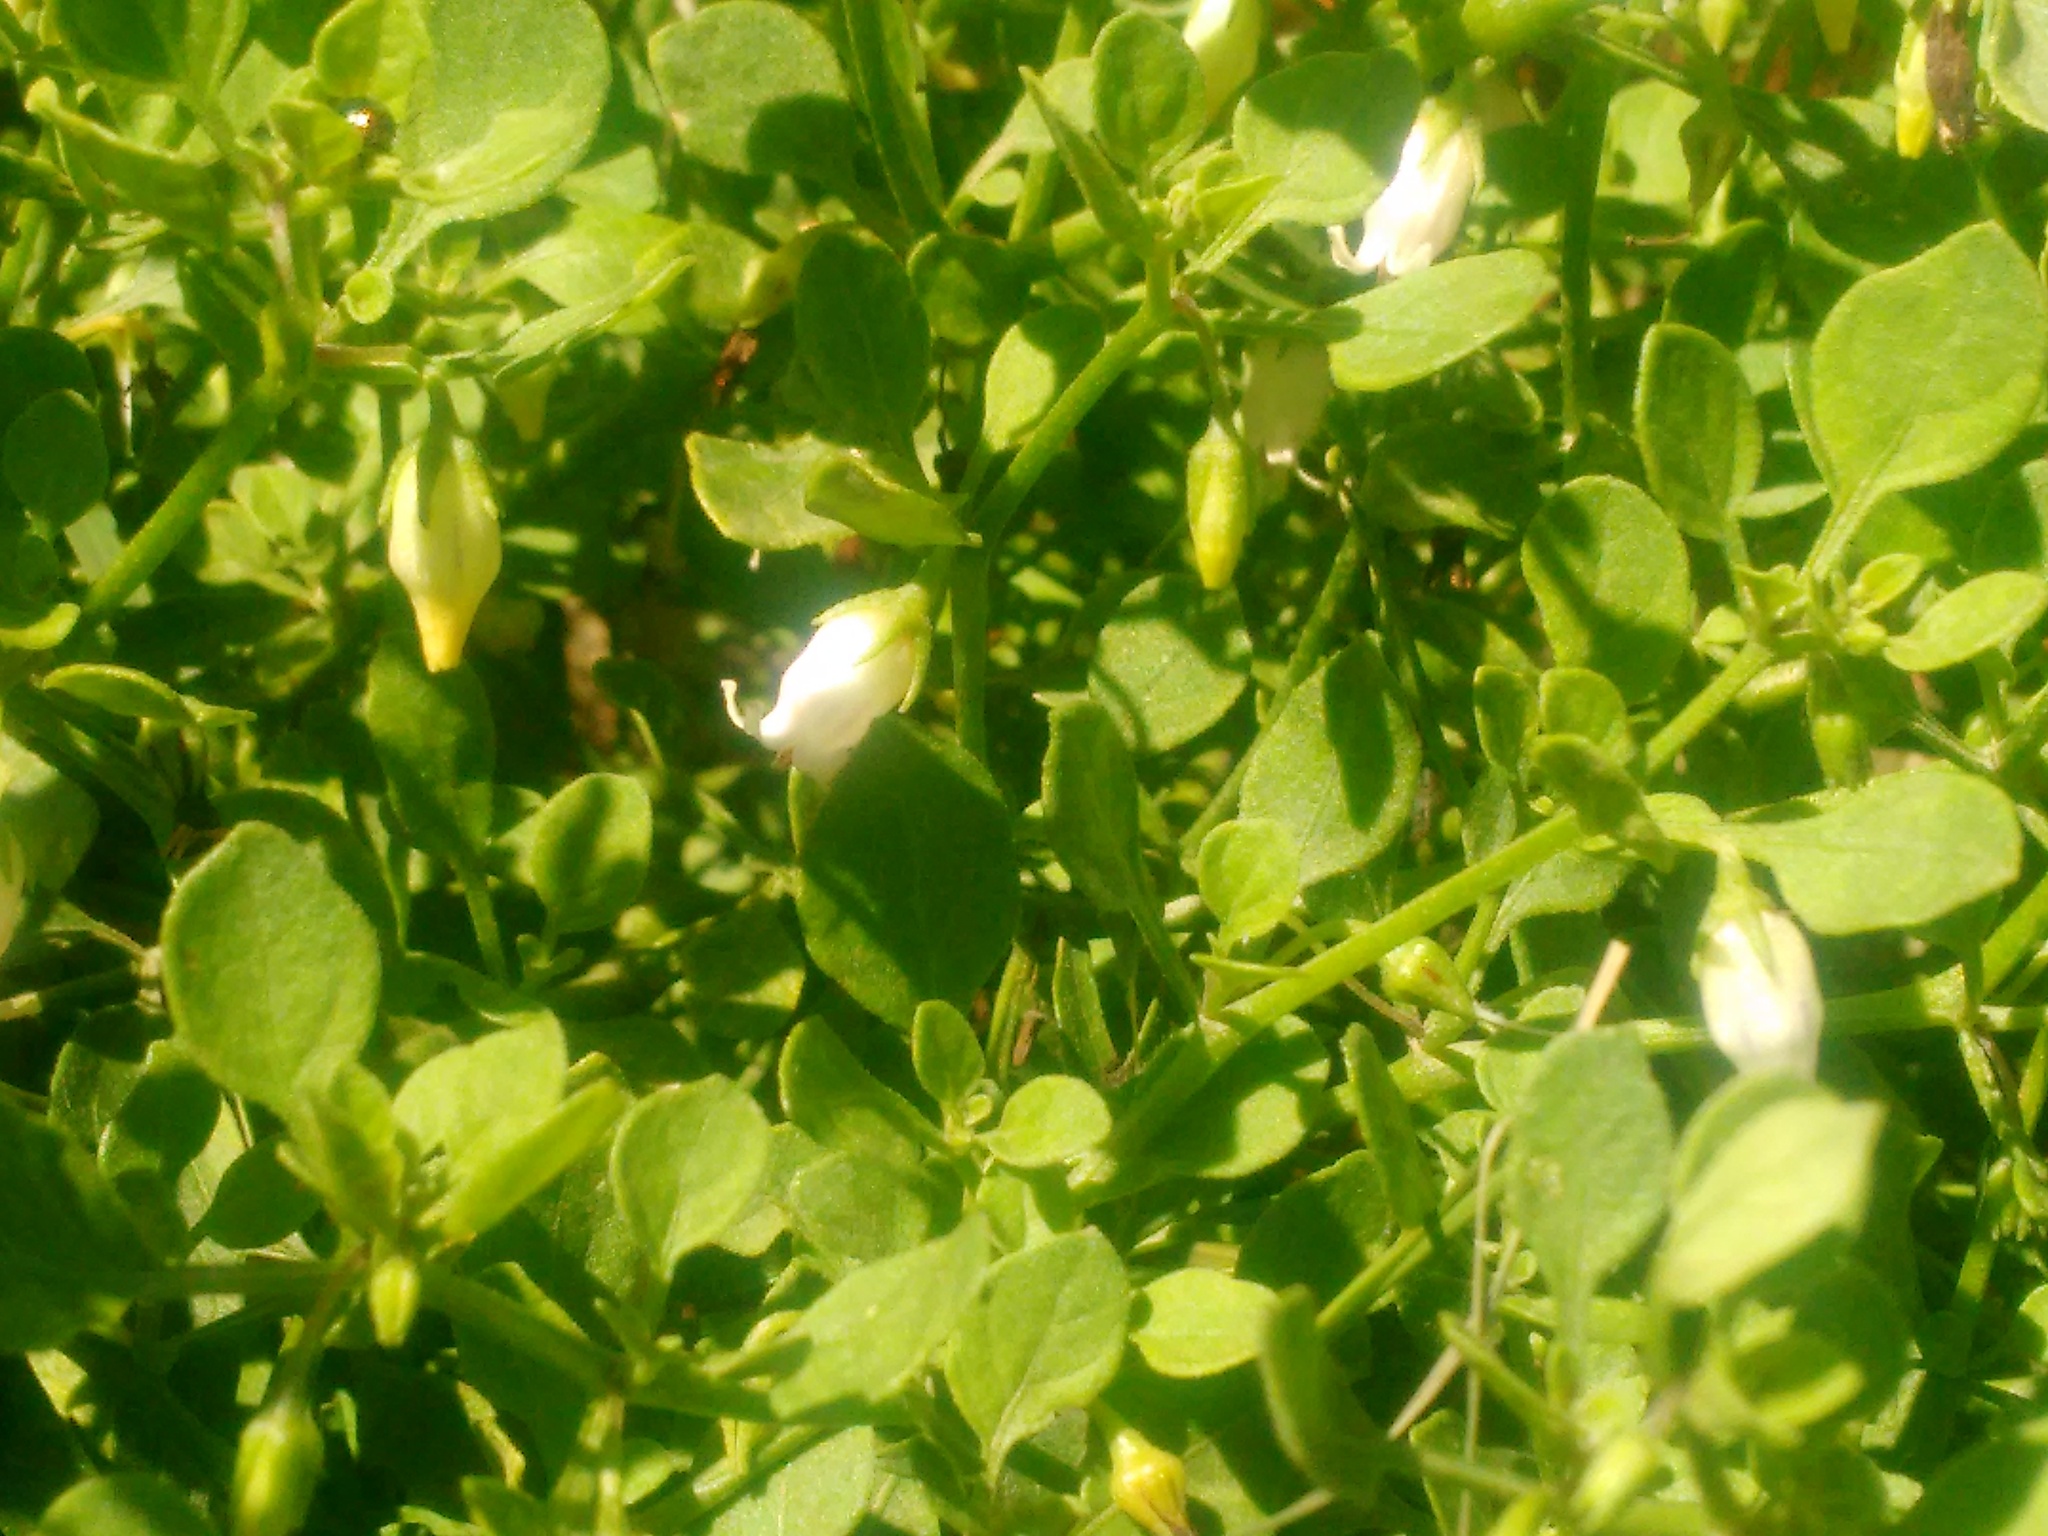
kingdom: Plantae
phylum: Tracheophyta
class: Magnoliopsida
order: Solanales
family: Solanaceae
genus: Salpichroa
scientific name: Salpichroa origanifolia
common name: Lily-of-the-valley-vine
